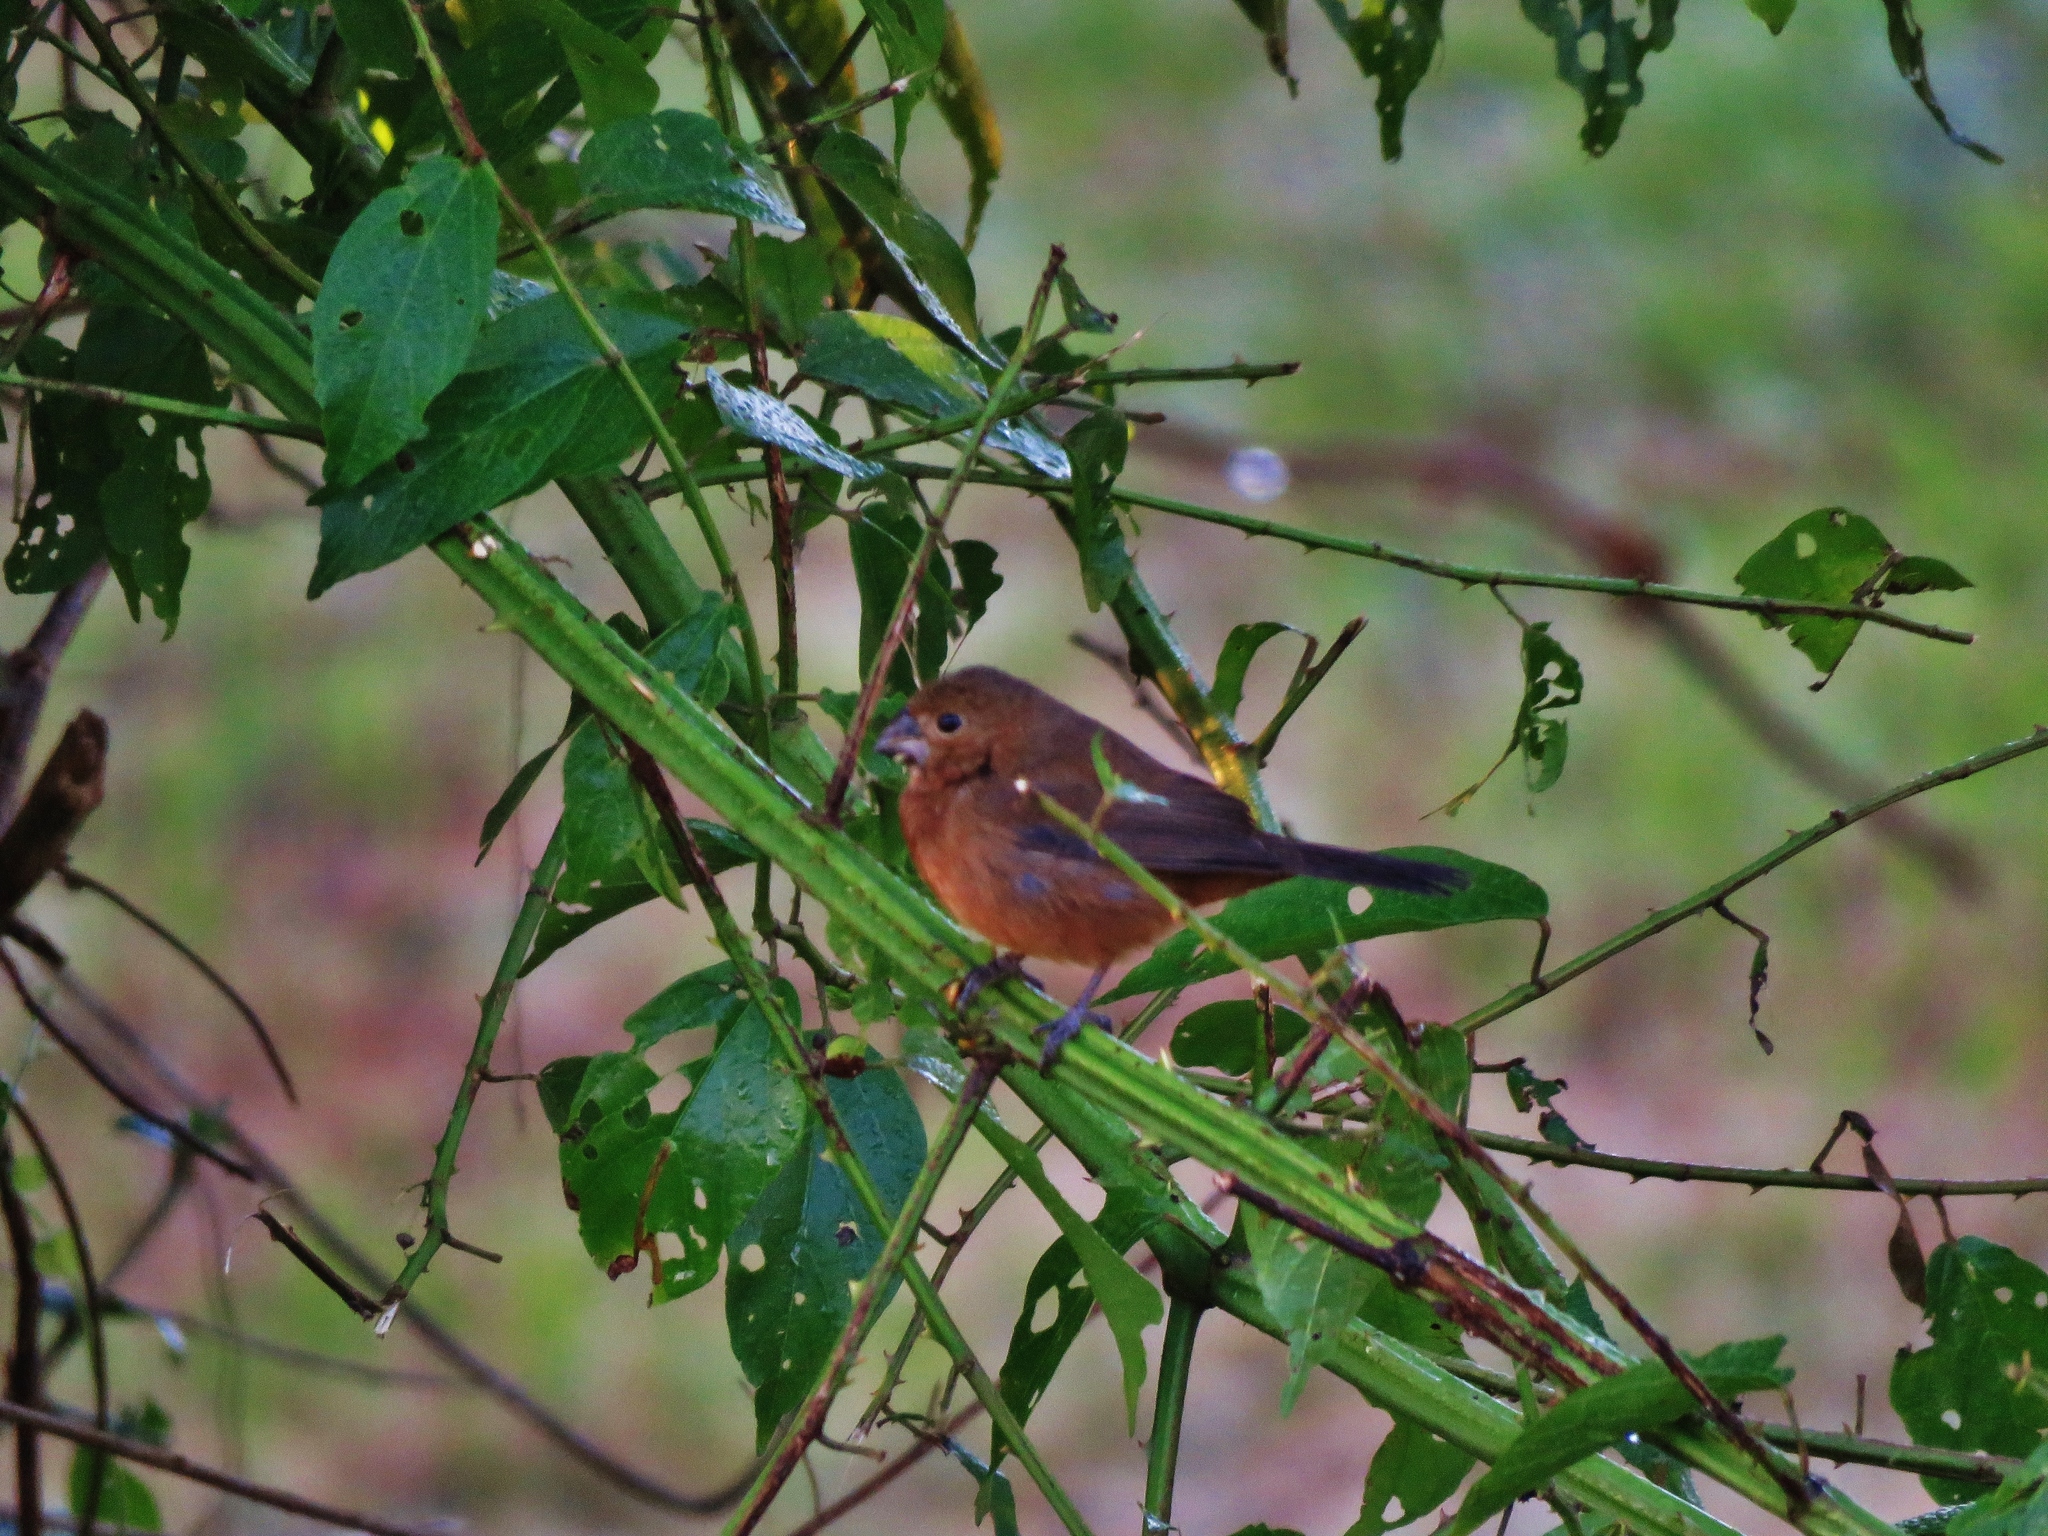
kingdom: Animalia
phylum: Chordata
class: Aves
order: Passeriformes
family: Thraupidae
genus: Sporophila
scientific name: Sporophila funerea
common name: Thick-billed seed-finch
